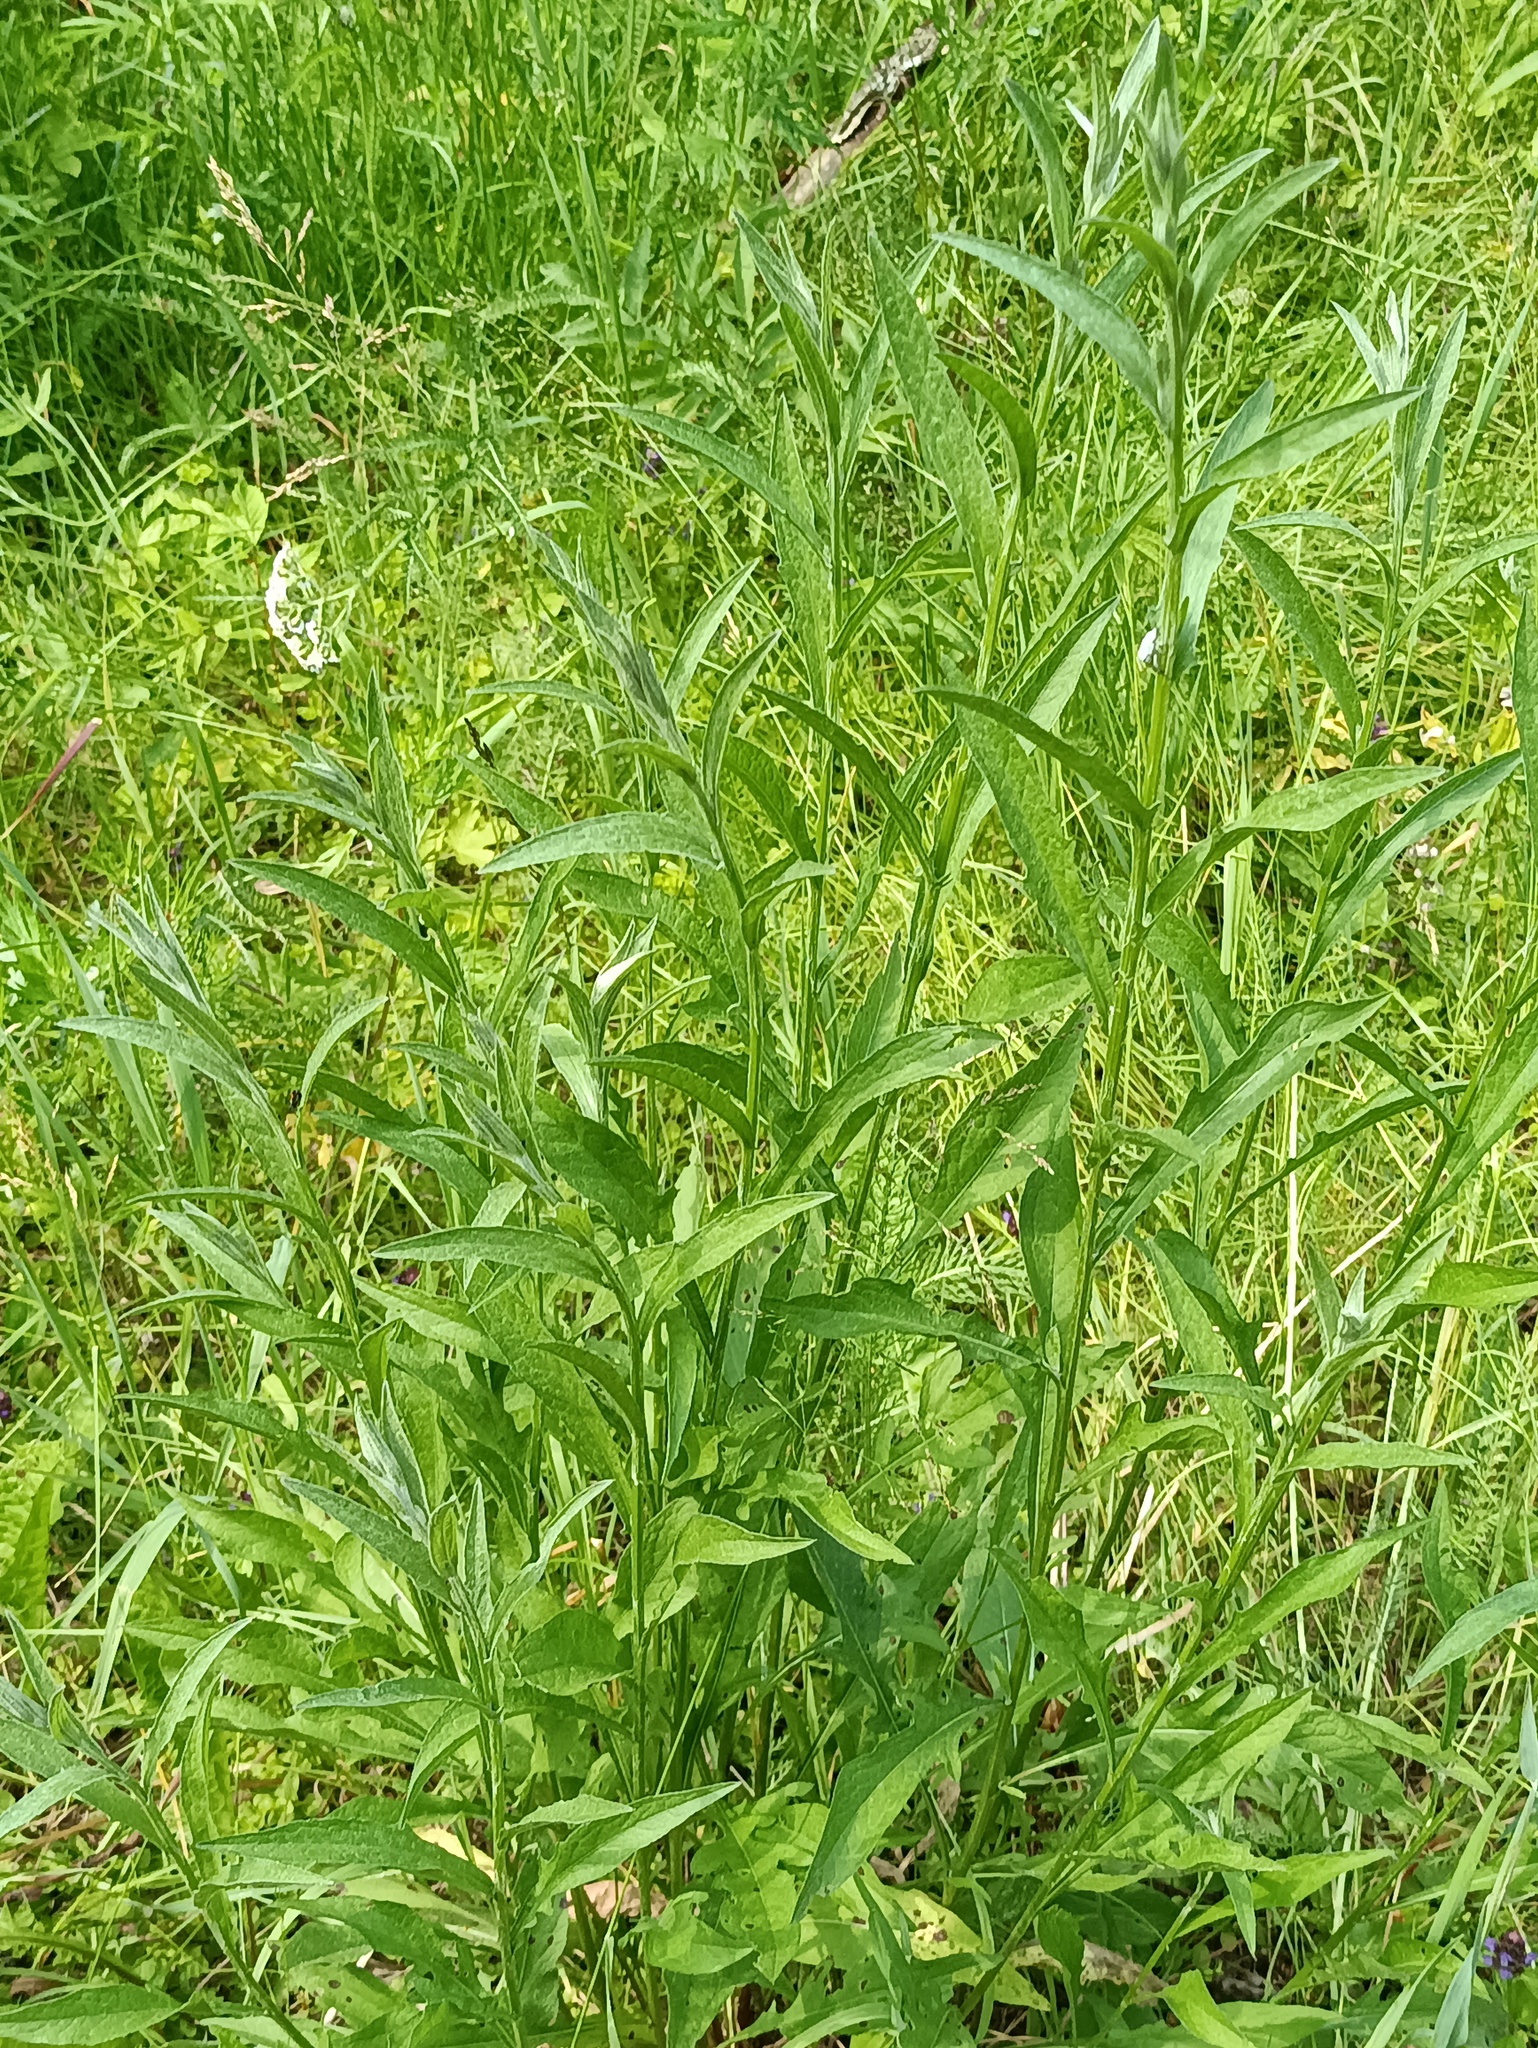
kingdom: Plantae
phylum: Tracheophyta
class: Magnoliopsida
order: Asterales
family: Asteraceae
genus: Centaurea
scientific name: Centaurea jacea
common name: Brown knapweed
